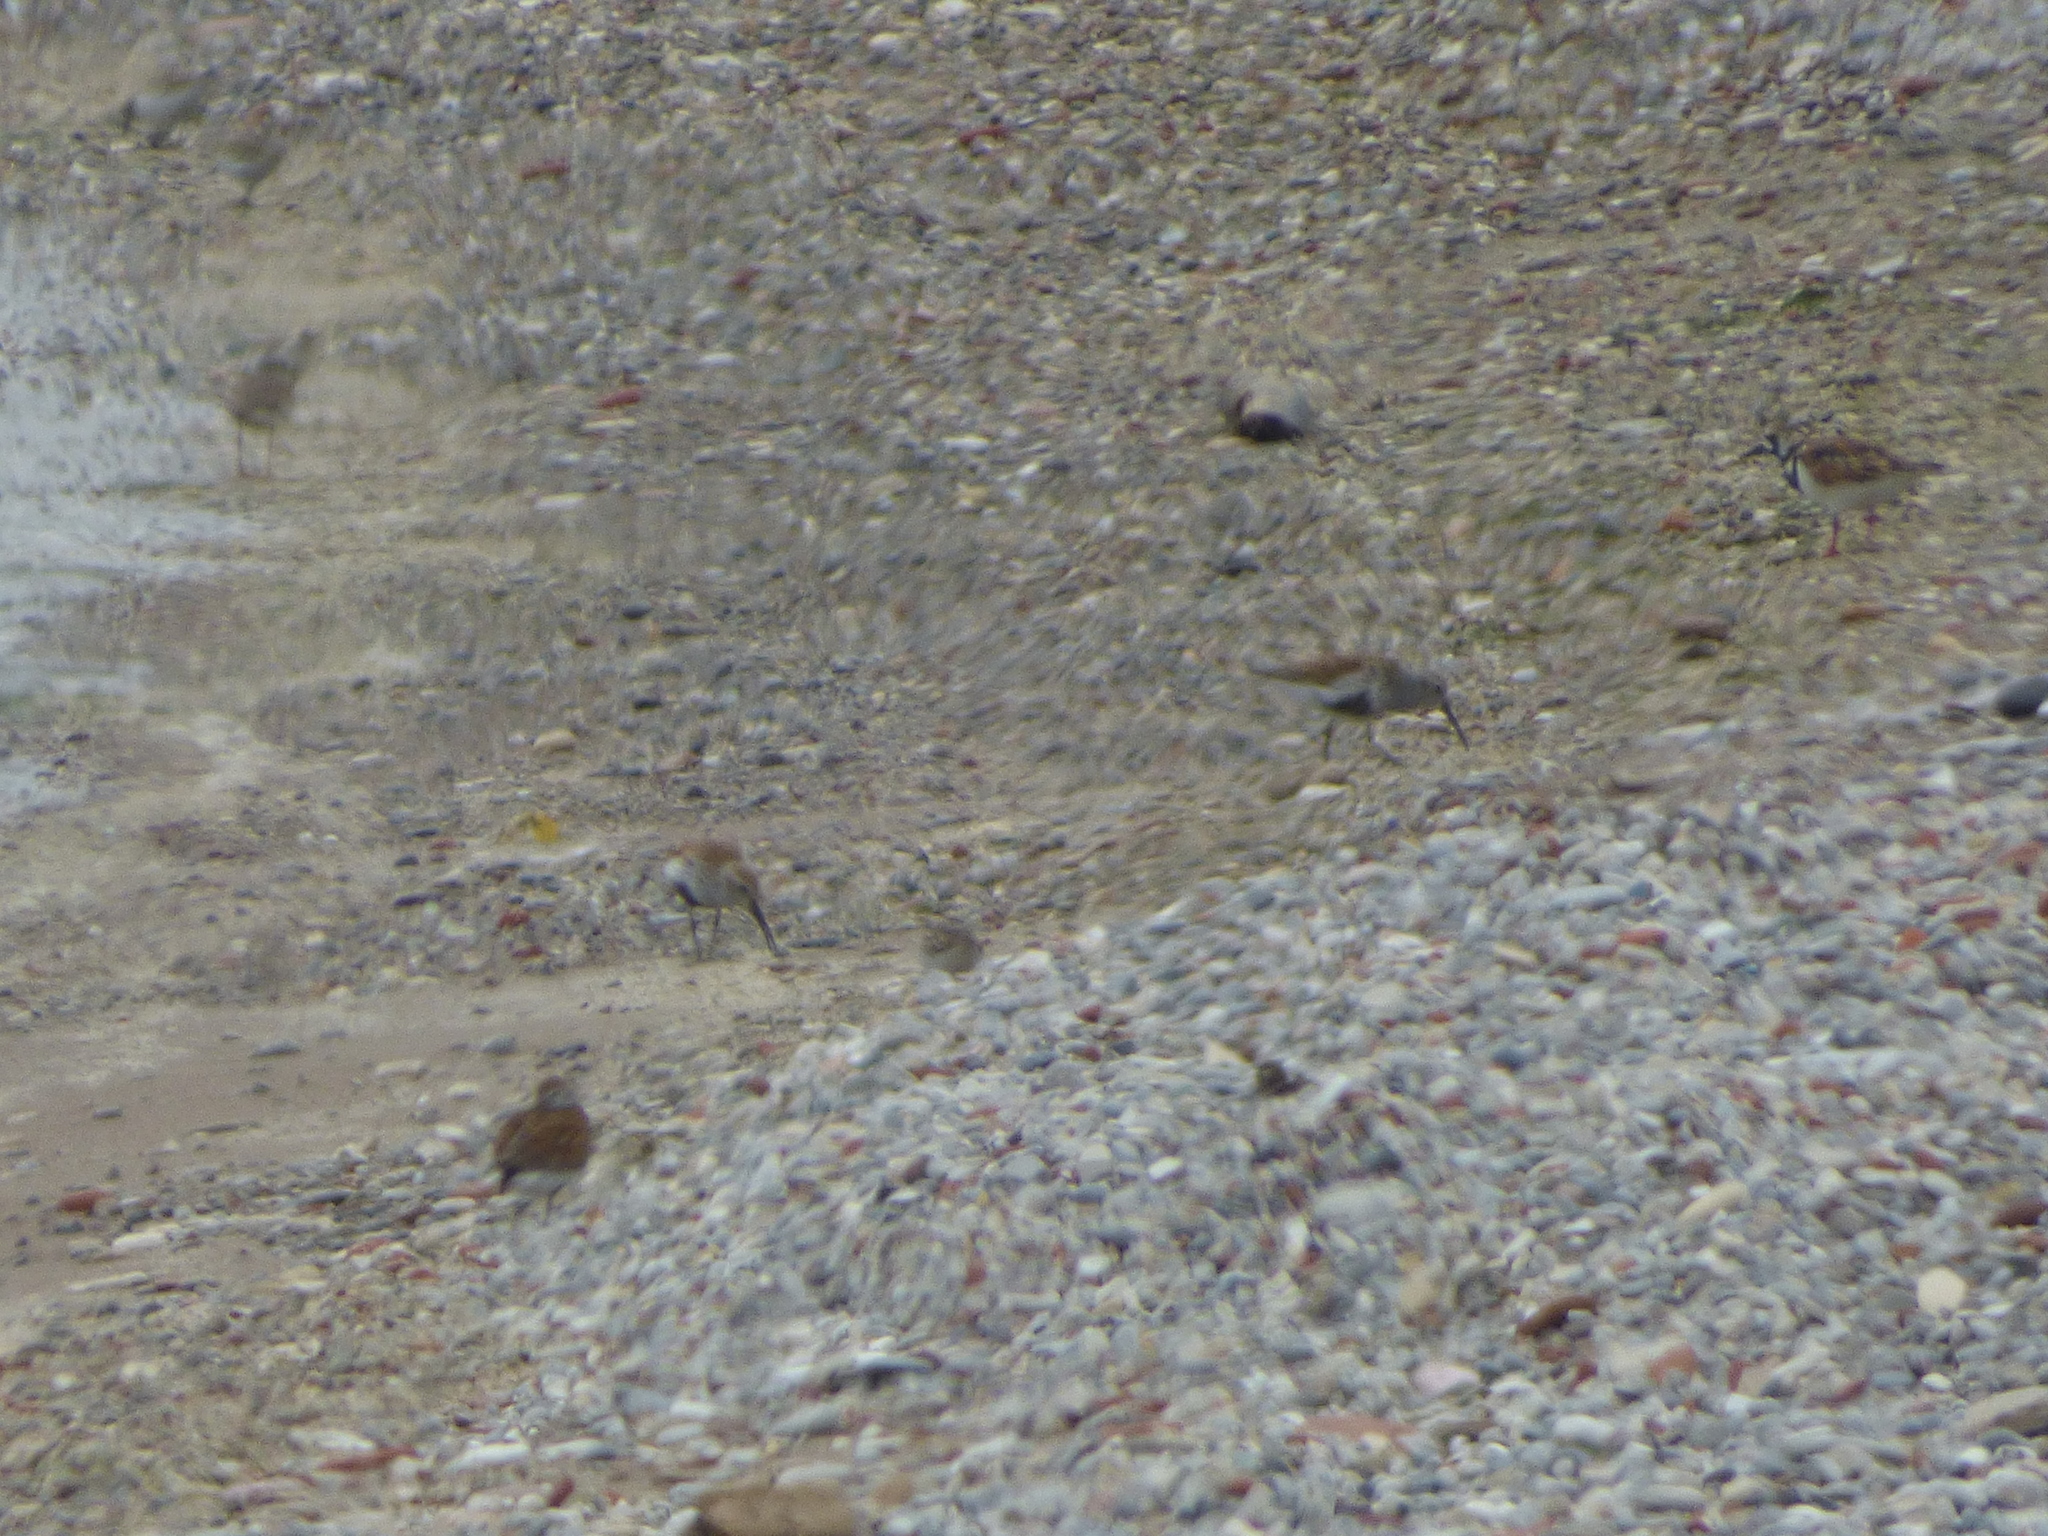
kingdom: Animalia
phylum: Chordata
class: Aves
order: Charadriiformes
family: Scolopacidae
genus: Calidris
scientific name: Calidris alpina
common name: Dunlin
